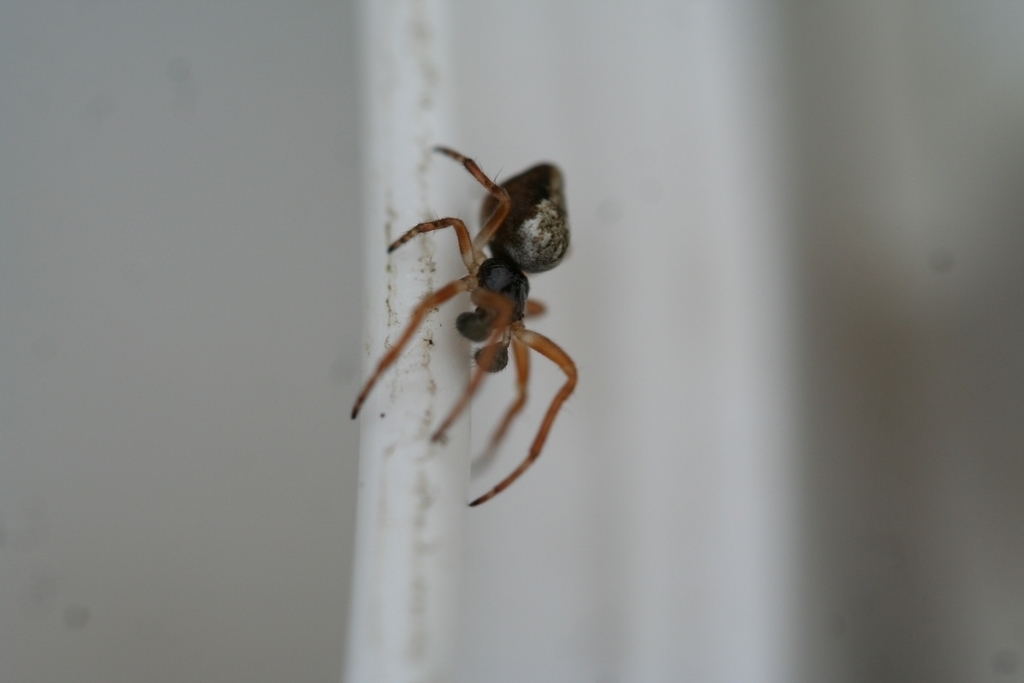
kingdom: Animalia
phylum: Arthropoda
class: Arachnida
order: Araneae
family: Araneidae
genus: Cyclosa
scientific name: Cyclosa conica
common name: Conical trashline orbweaver
